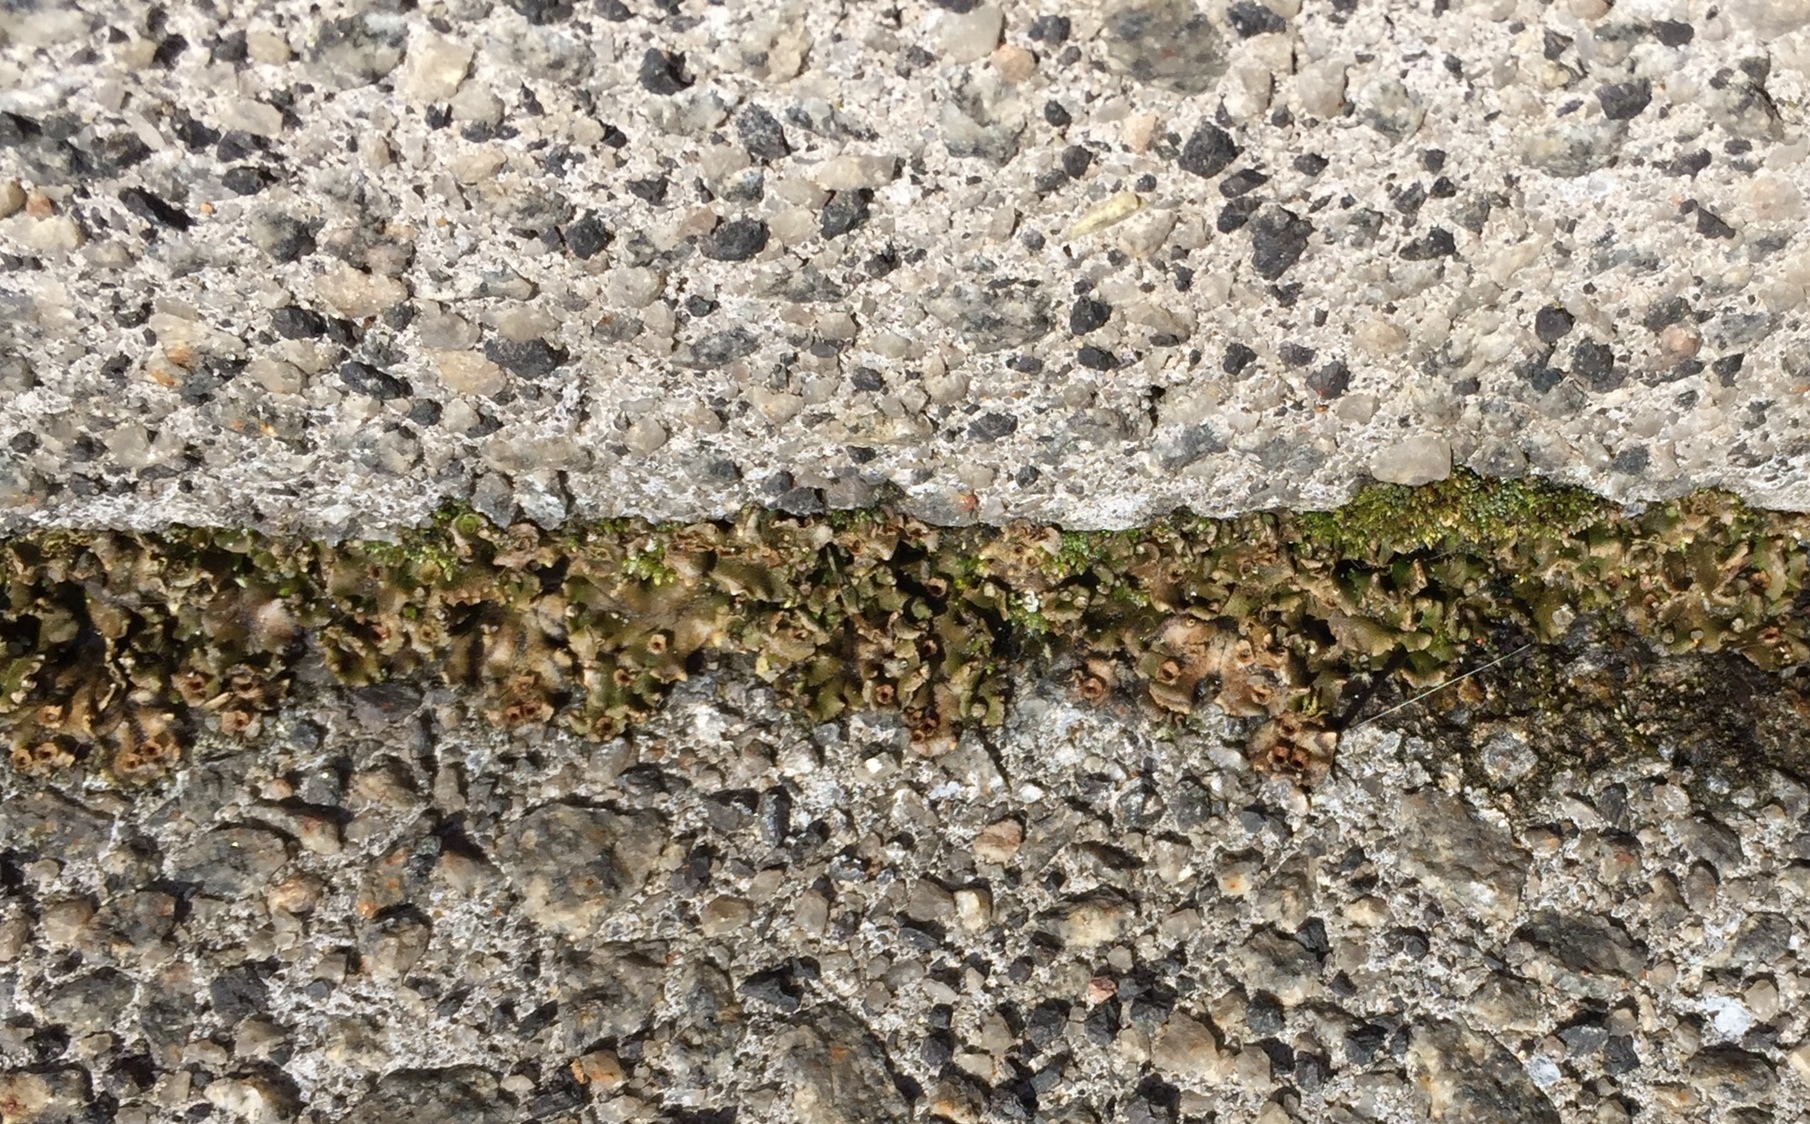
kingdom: Plantae
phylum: Marchantiophyta
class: Marchantiopsida
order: Marchantiales
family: Marchantiaceae
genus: Marchantia
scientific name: Marchantia polymorpha
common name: Common liverwort
